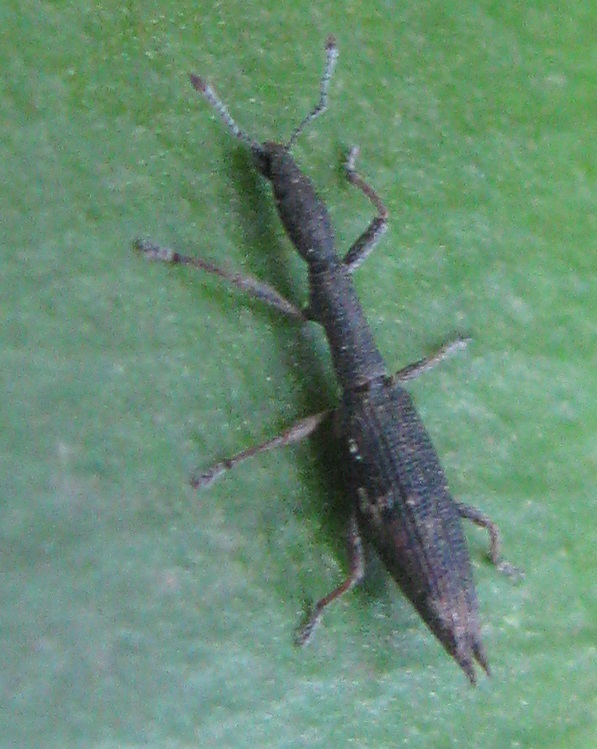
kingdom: Animalia
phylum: Arthropoda
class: Insecta
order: Coleoptera
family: Curculionidae
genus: Rhadinosomus
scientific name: Rhadinosomus lacordairei
